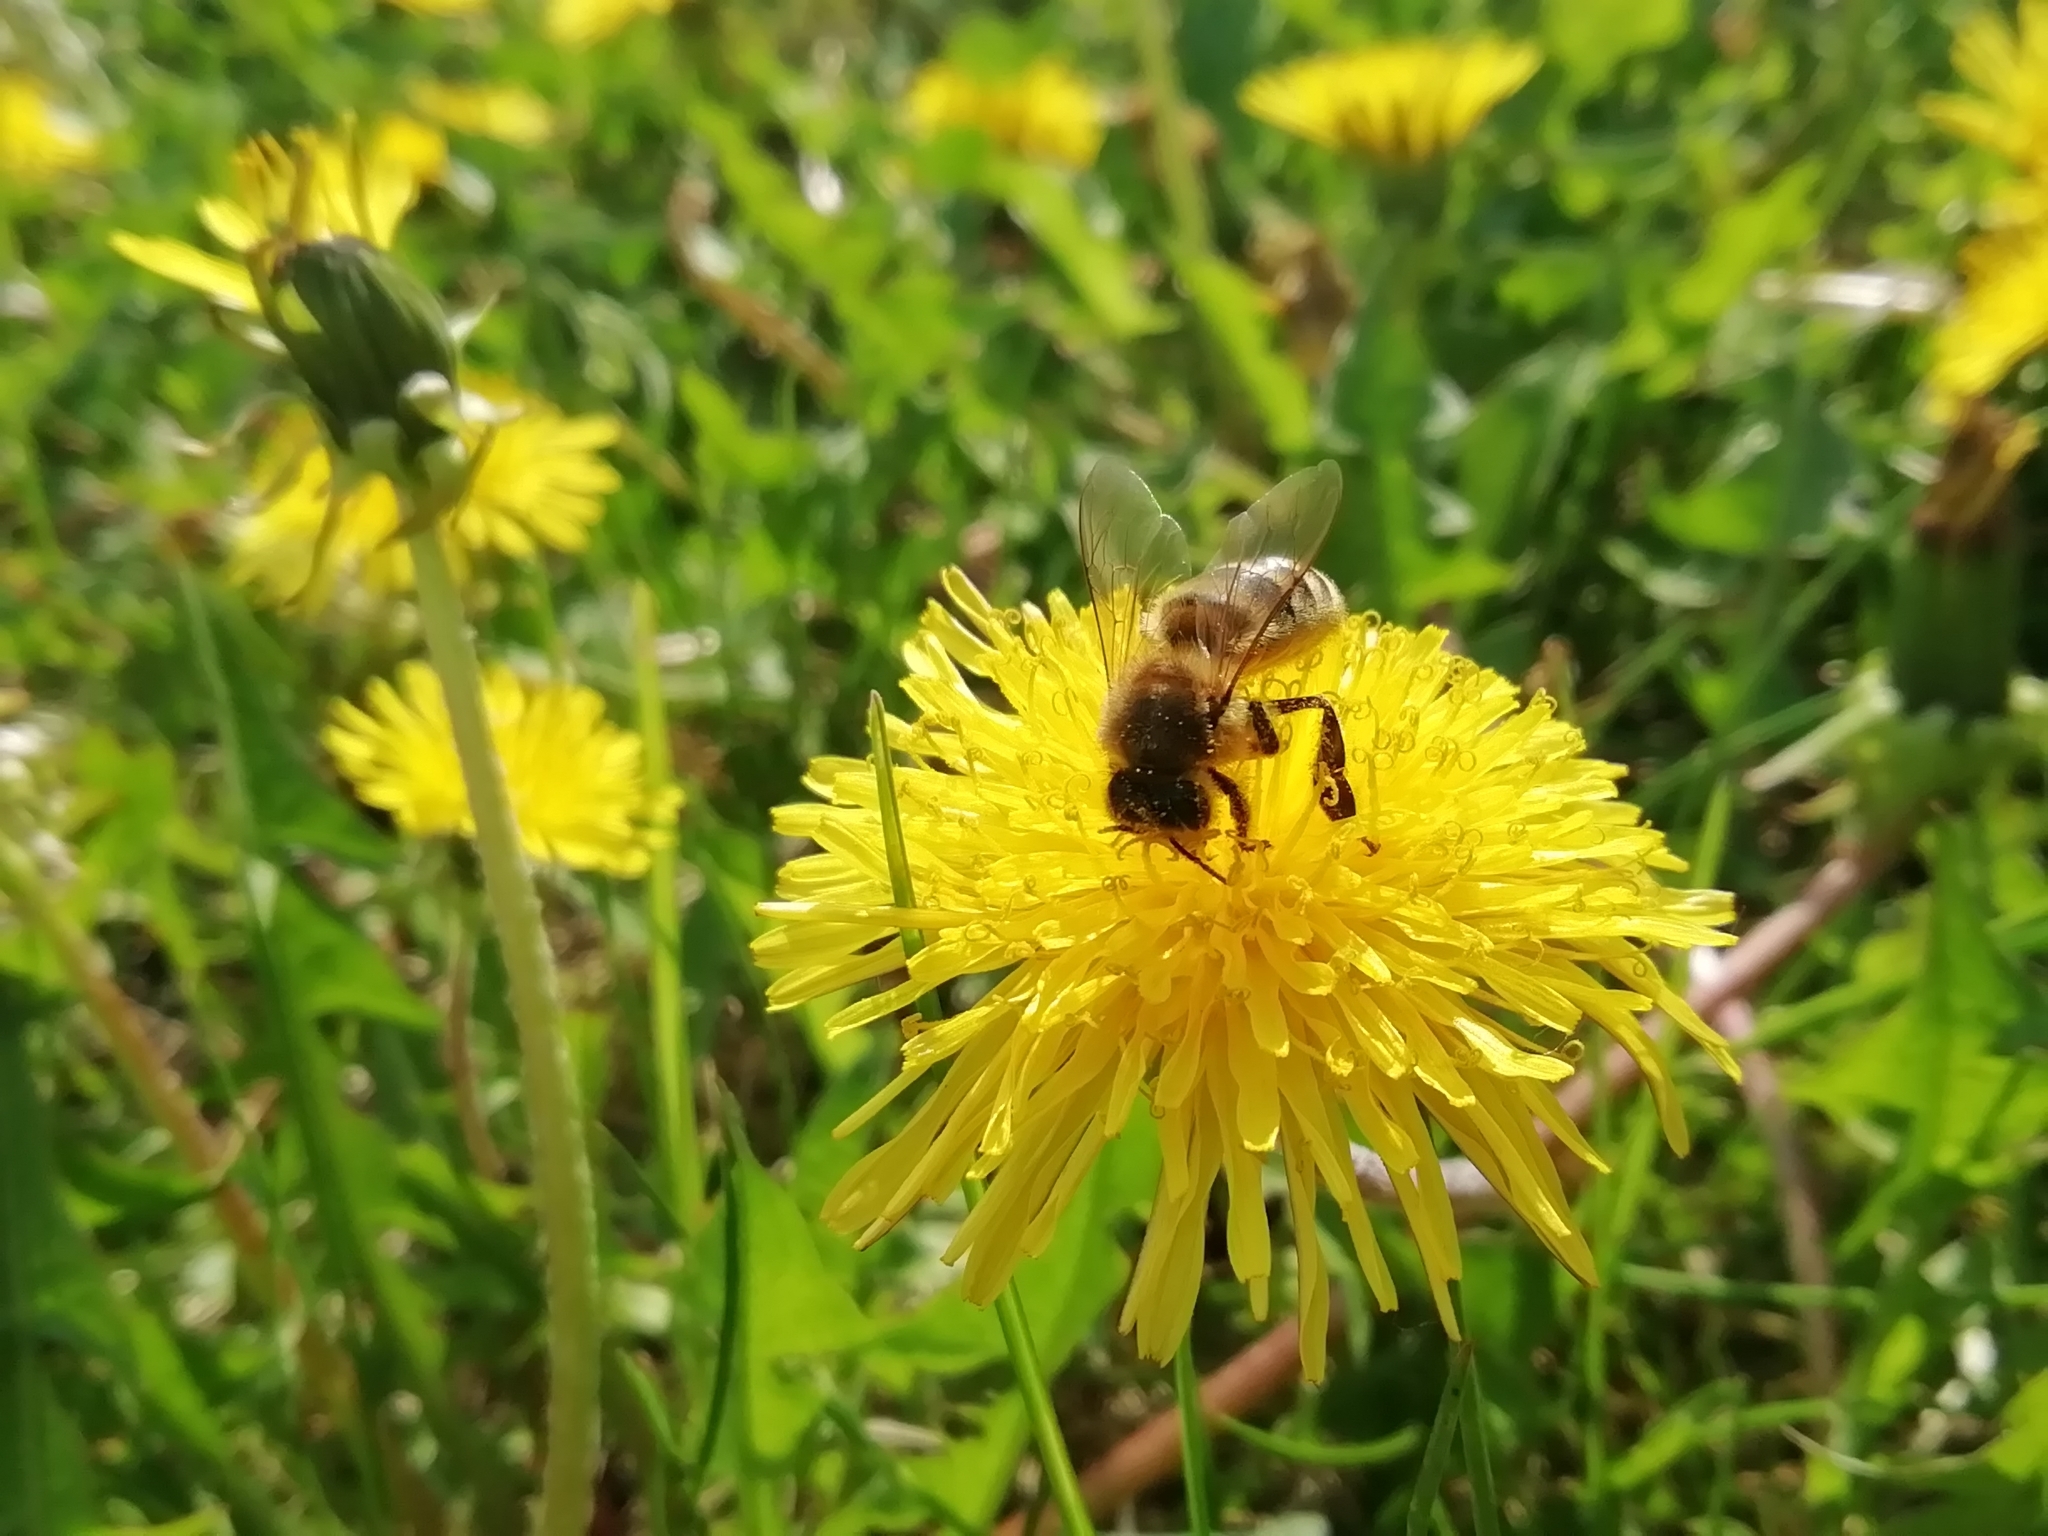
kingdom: Animalia
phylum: Arthropoda
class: Insecta
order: Hymenoptera
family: Apidae
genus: Apis
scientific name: Apis mellifera
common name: Honey bee
